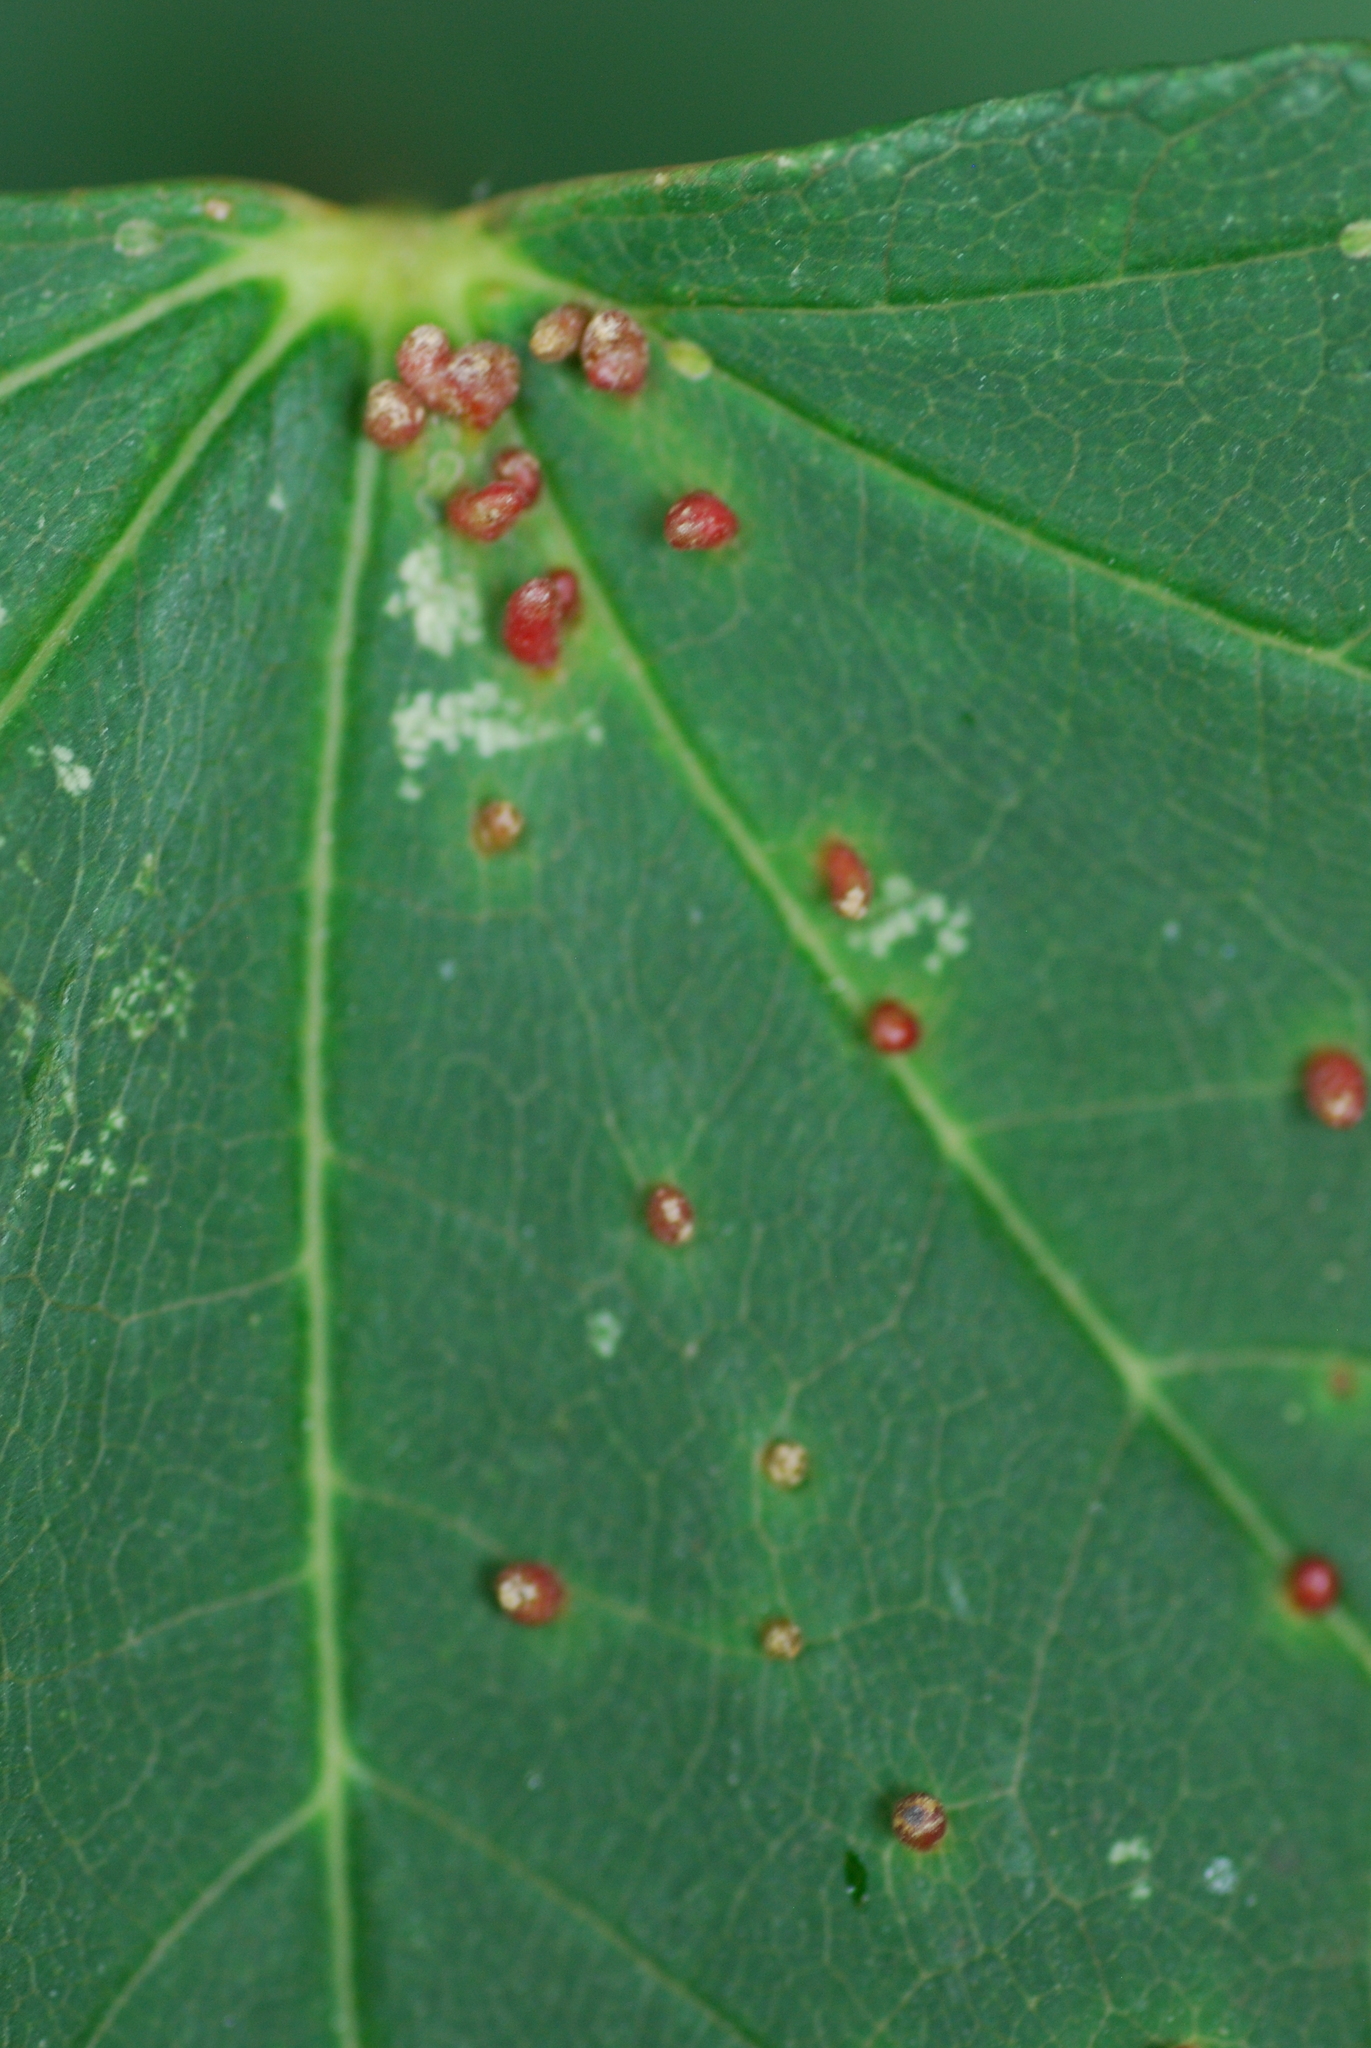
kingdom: Animalia
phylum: Arthropoda
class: Arachnida
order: Trombidiformes
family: Eriophyidae
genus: Aceria
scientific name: Aceria macrorhynchus
